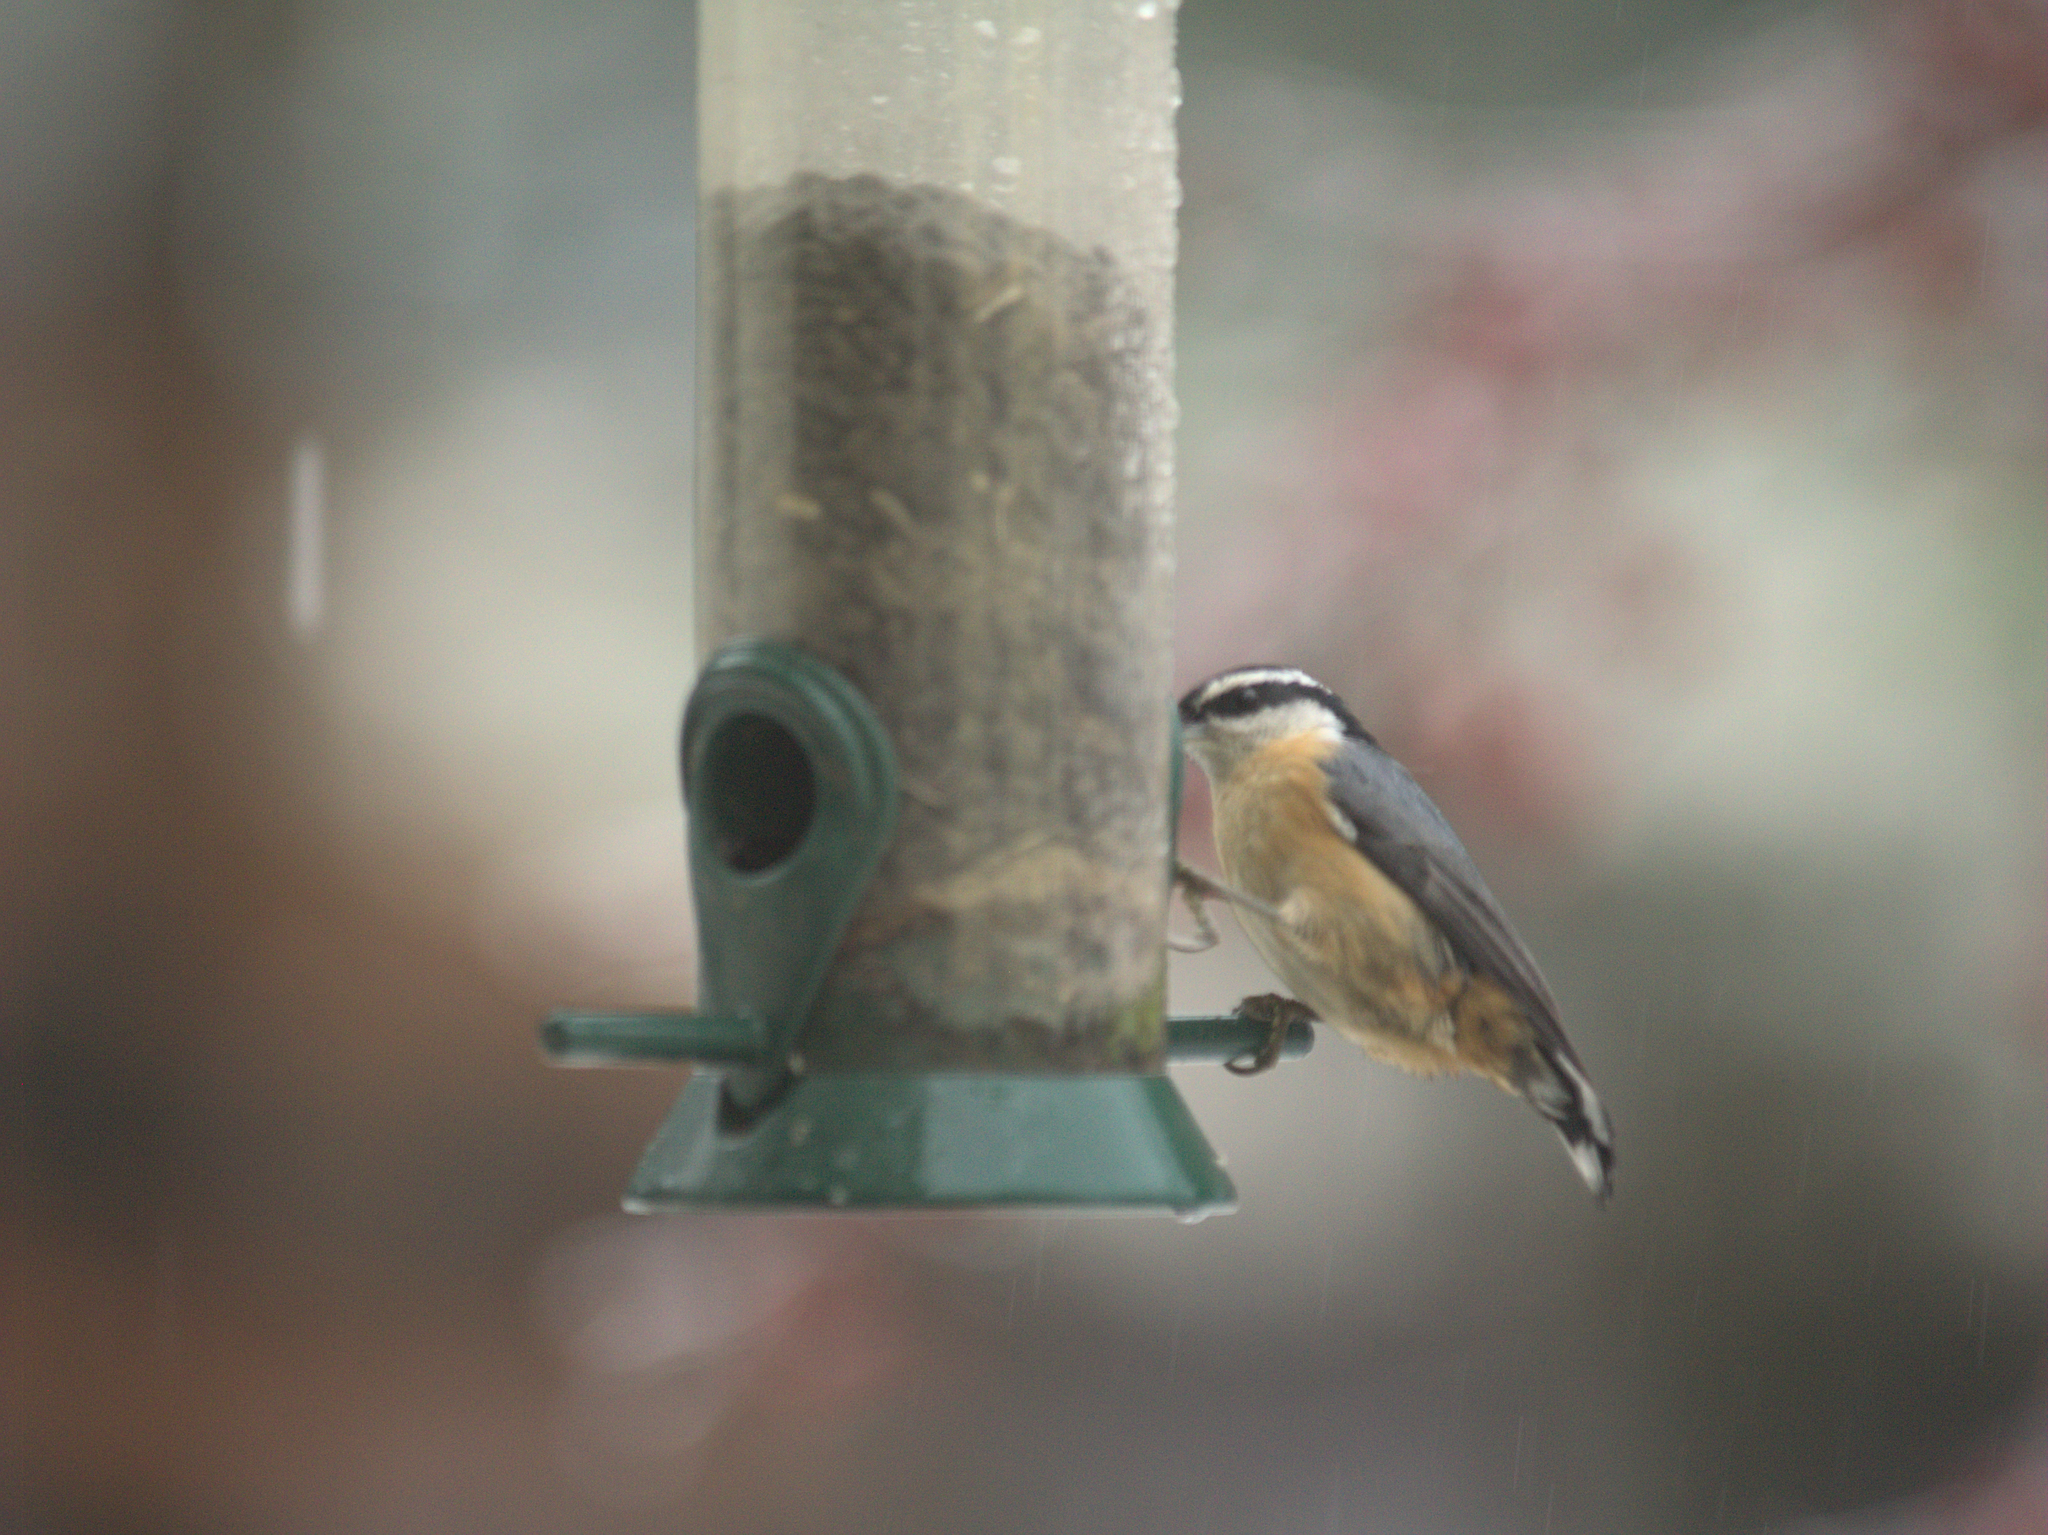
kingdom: Animalia
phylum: Chordata
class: Aves
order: Passeriformes
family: Sittidae
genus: Sitta
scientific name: Sitta canadensis
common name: Red-breasted nuthatch
